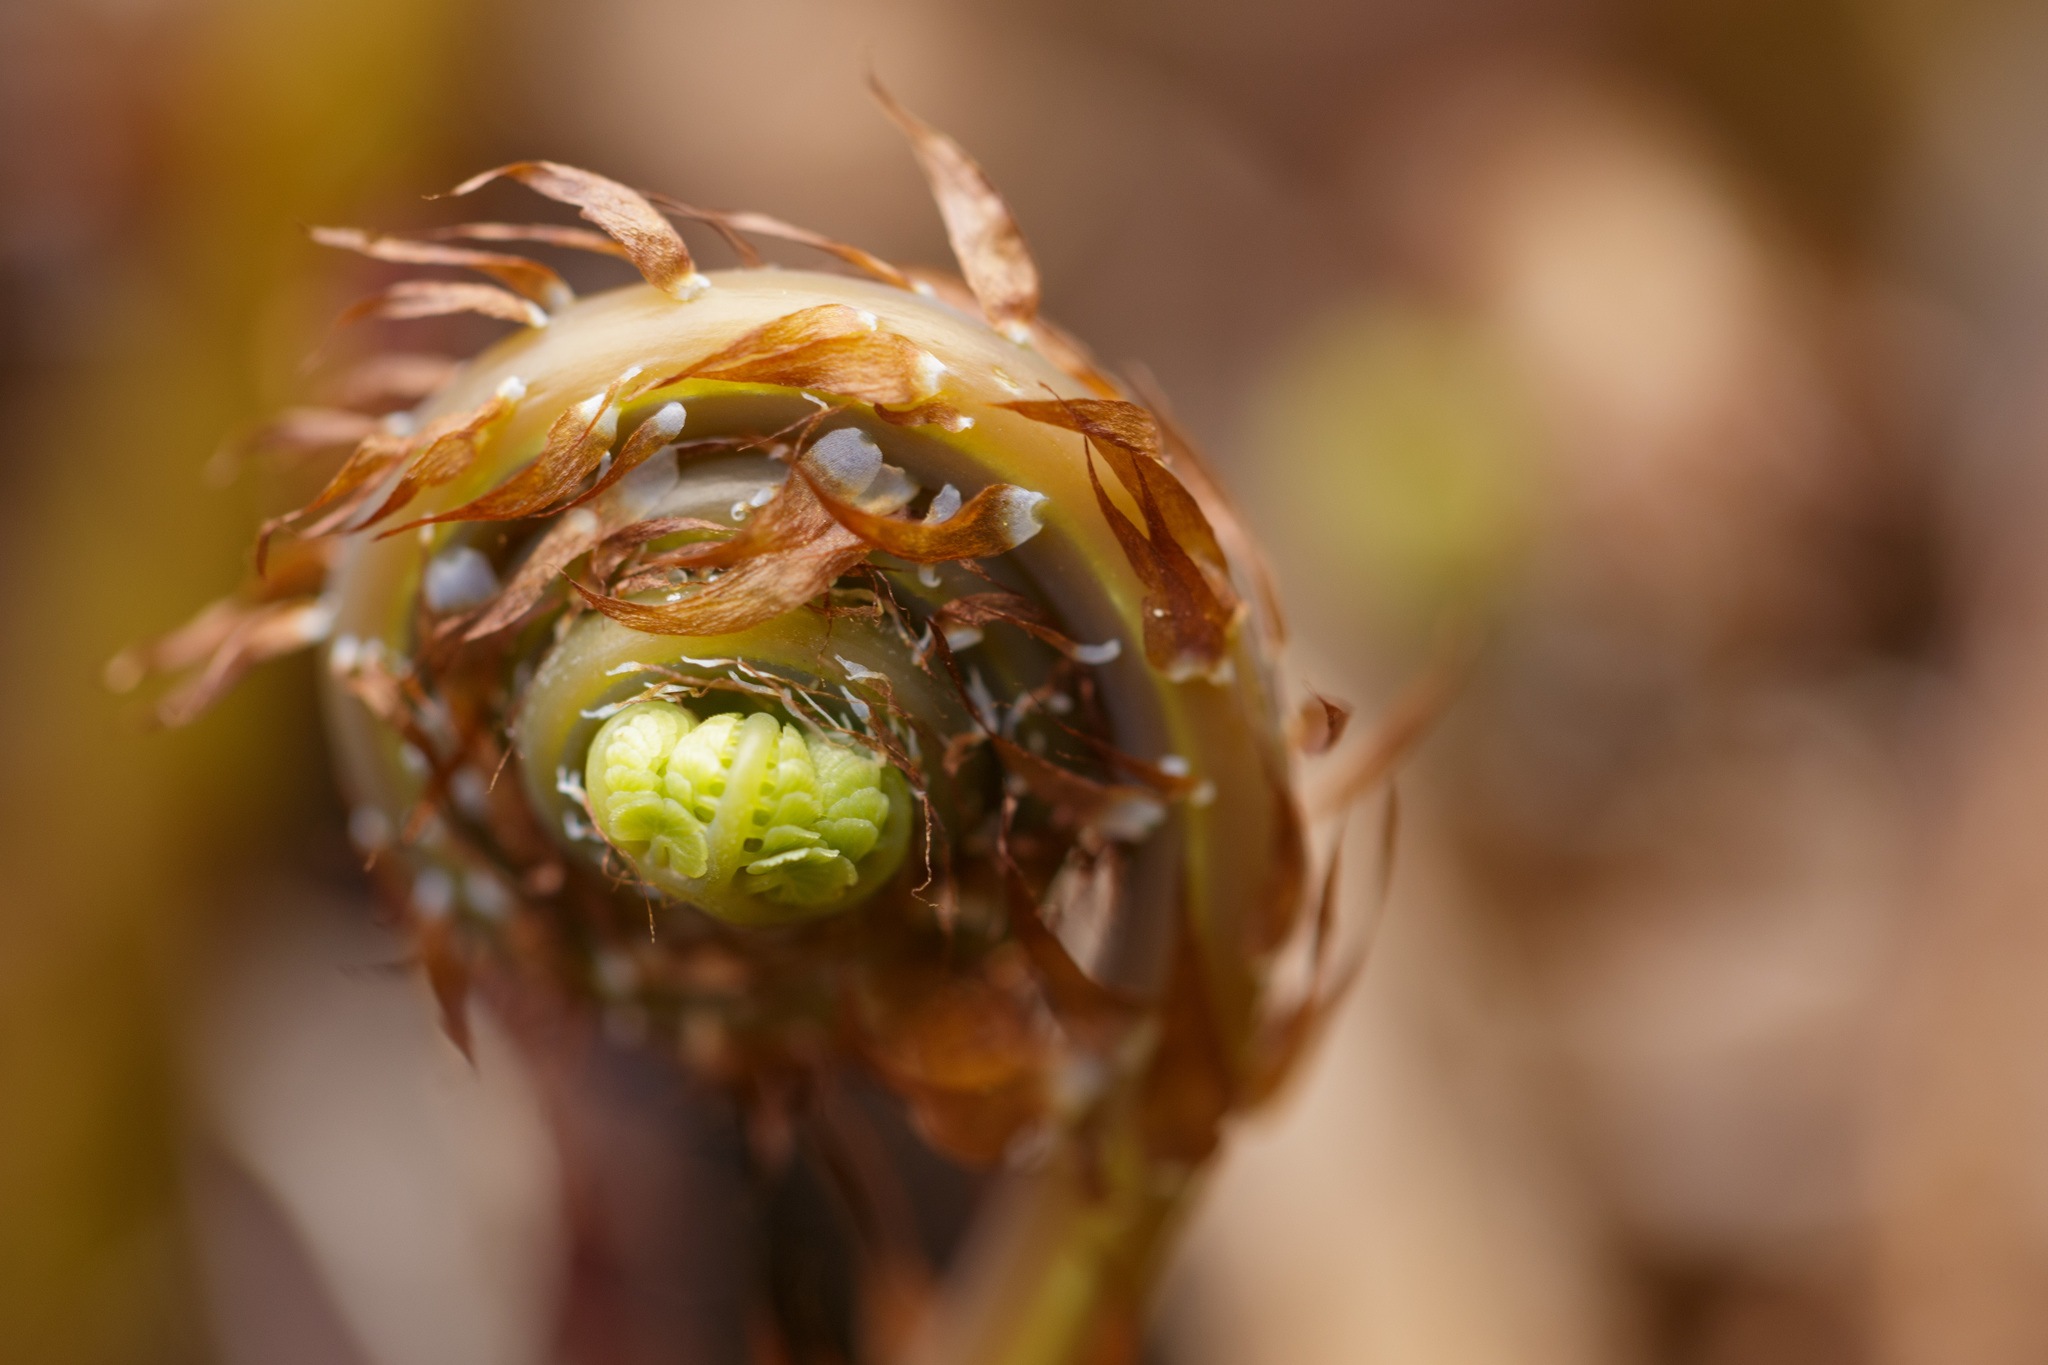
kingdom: Plantae
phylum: Tracheophyta
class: Polypodiopsida
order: Polypodiales
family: Pteridaceae
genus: Adiantum
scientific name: Adiantum aleuticum
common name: Aleutian maidenhair fern
